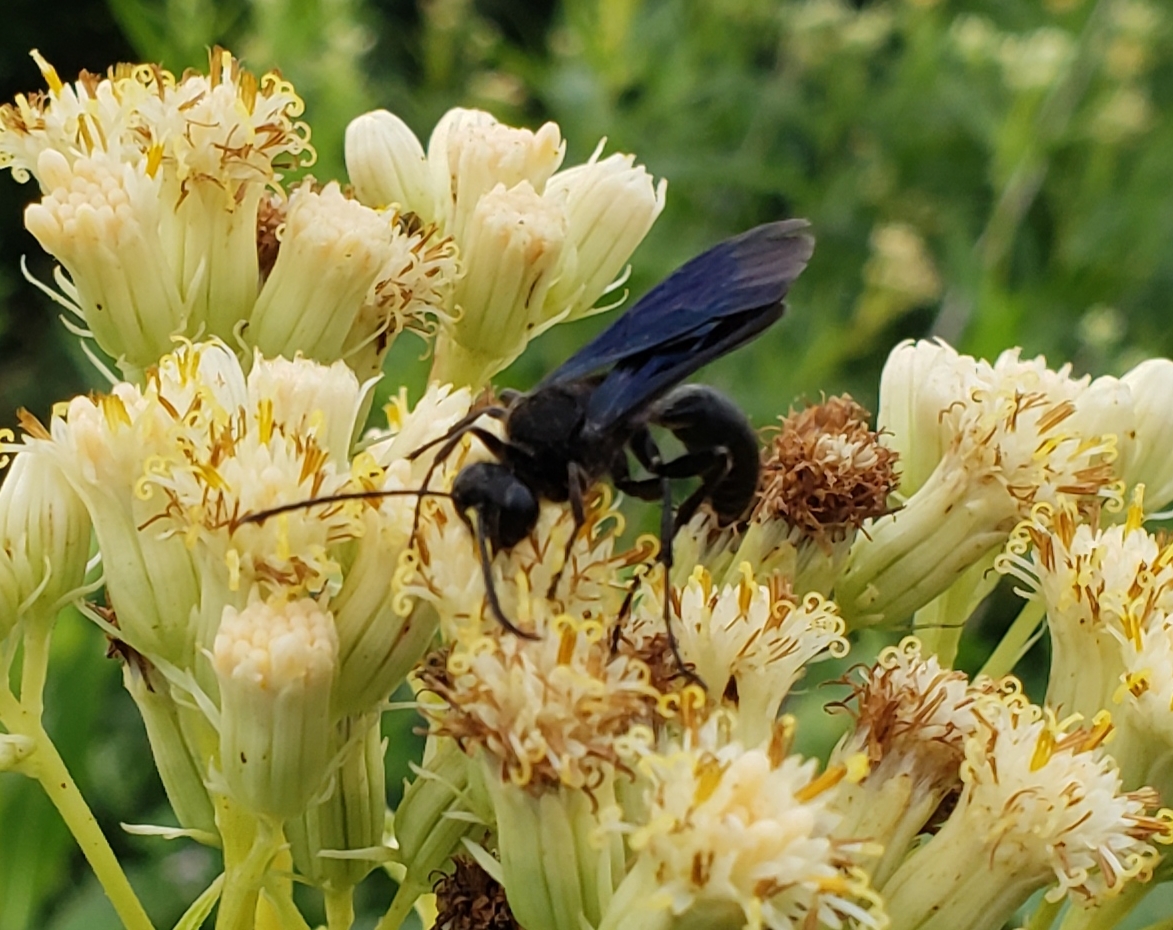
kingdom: Animalia
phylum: Arthropoda
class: Insecta
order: Hymenoptera
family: Sphecidae
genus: Sphex
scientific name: Sphex pensylvanicus
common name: Great black digger wasp
